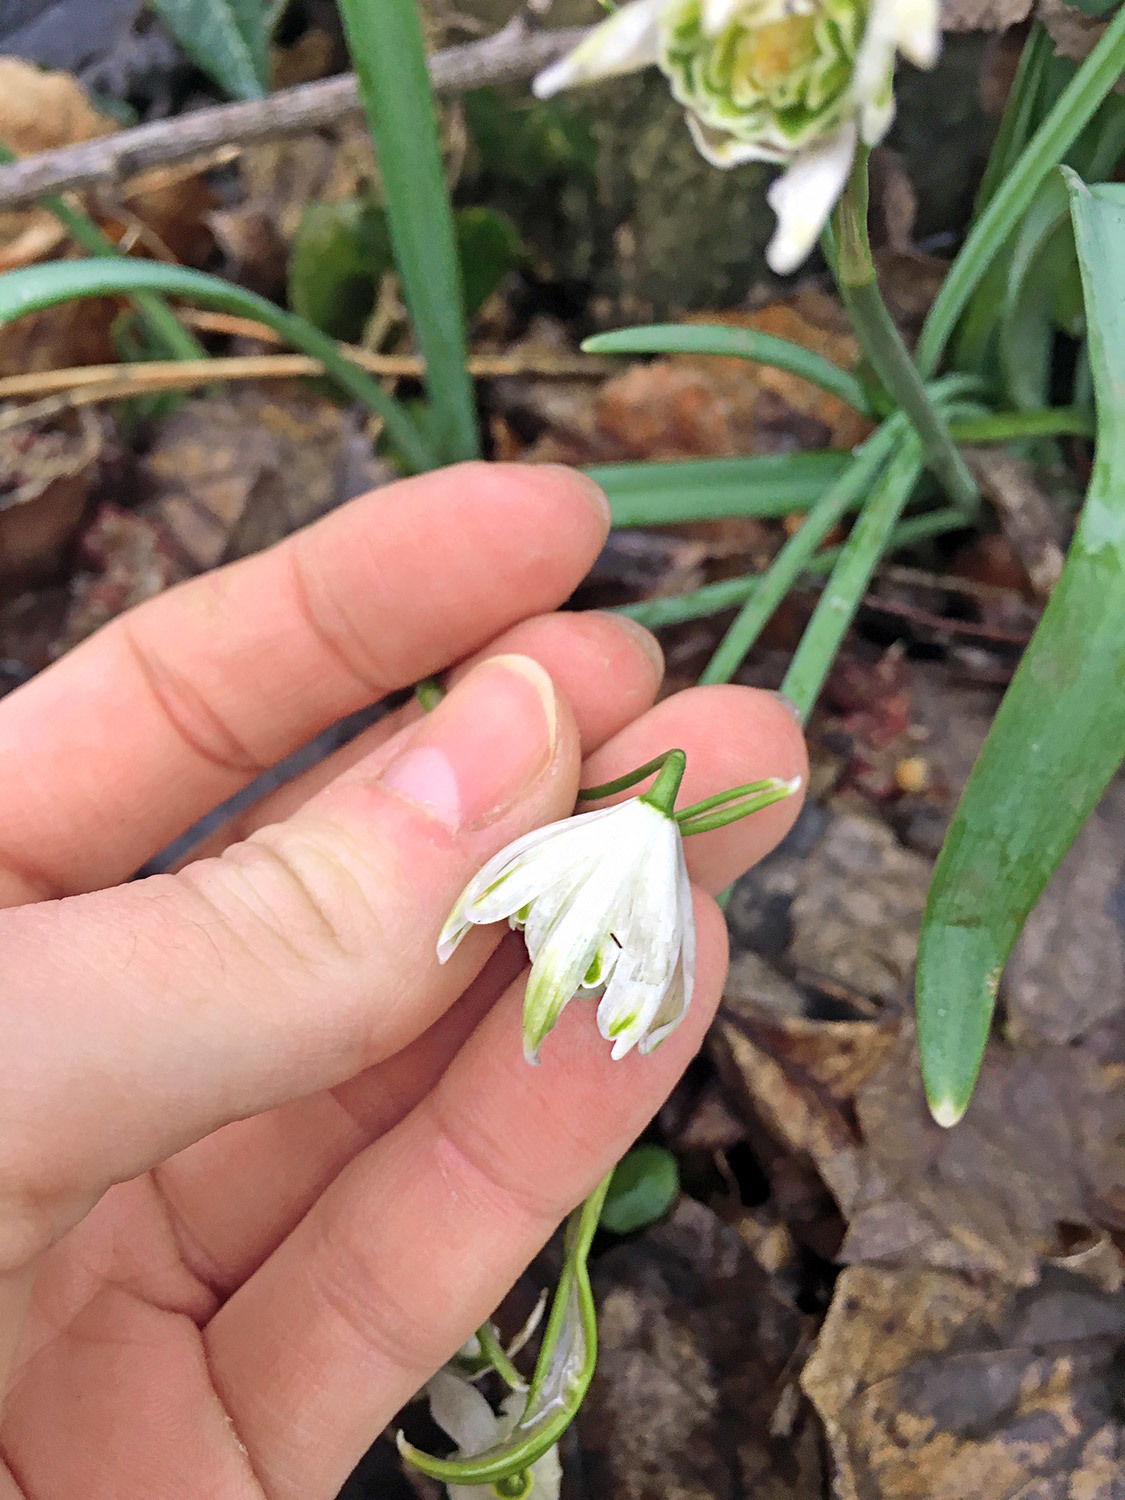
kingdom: Plantae
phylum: Tracheophyta
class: Liliopsida
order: Asparagales
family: Amaryllidaceae
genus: Galanthus
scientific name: Galanthus nivalis
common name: Snowdrop
